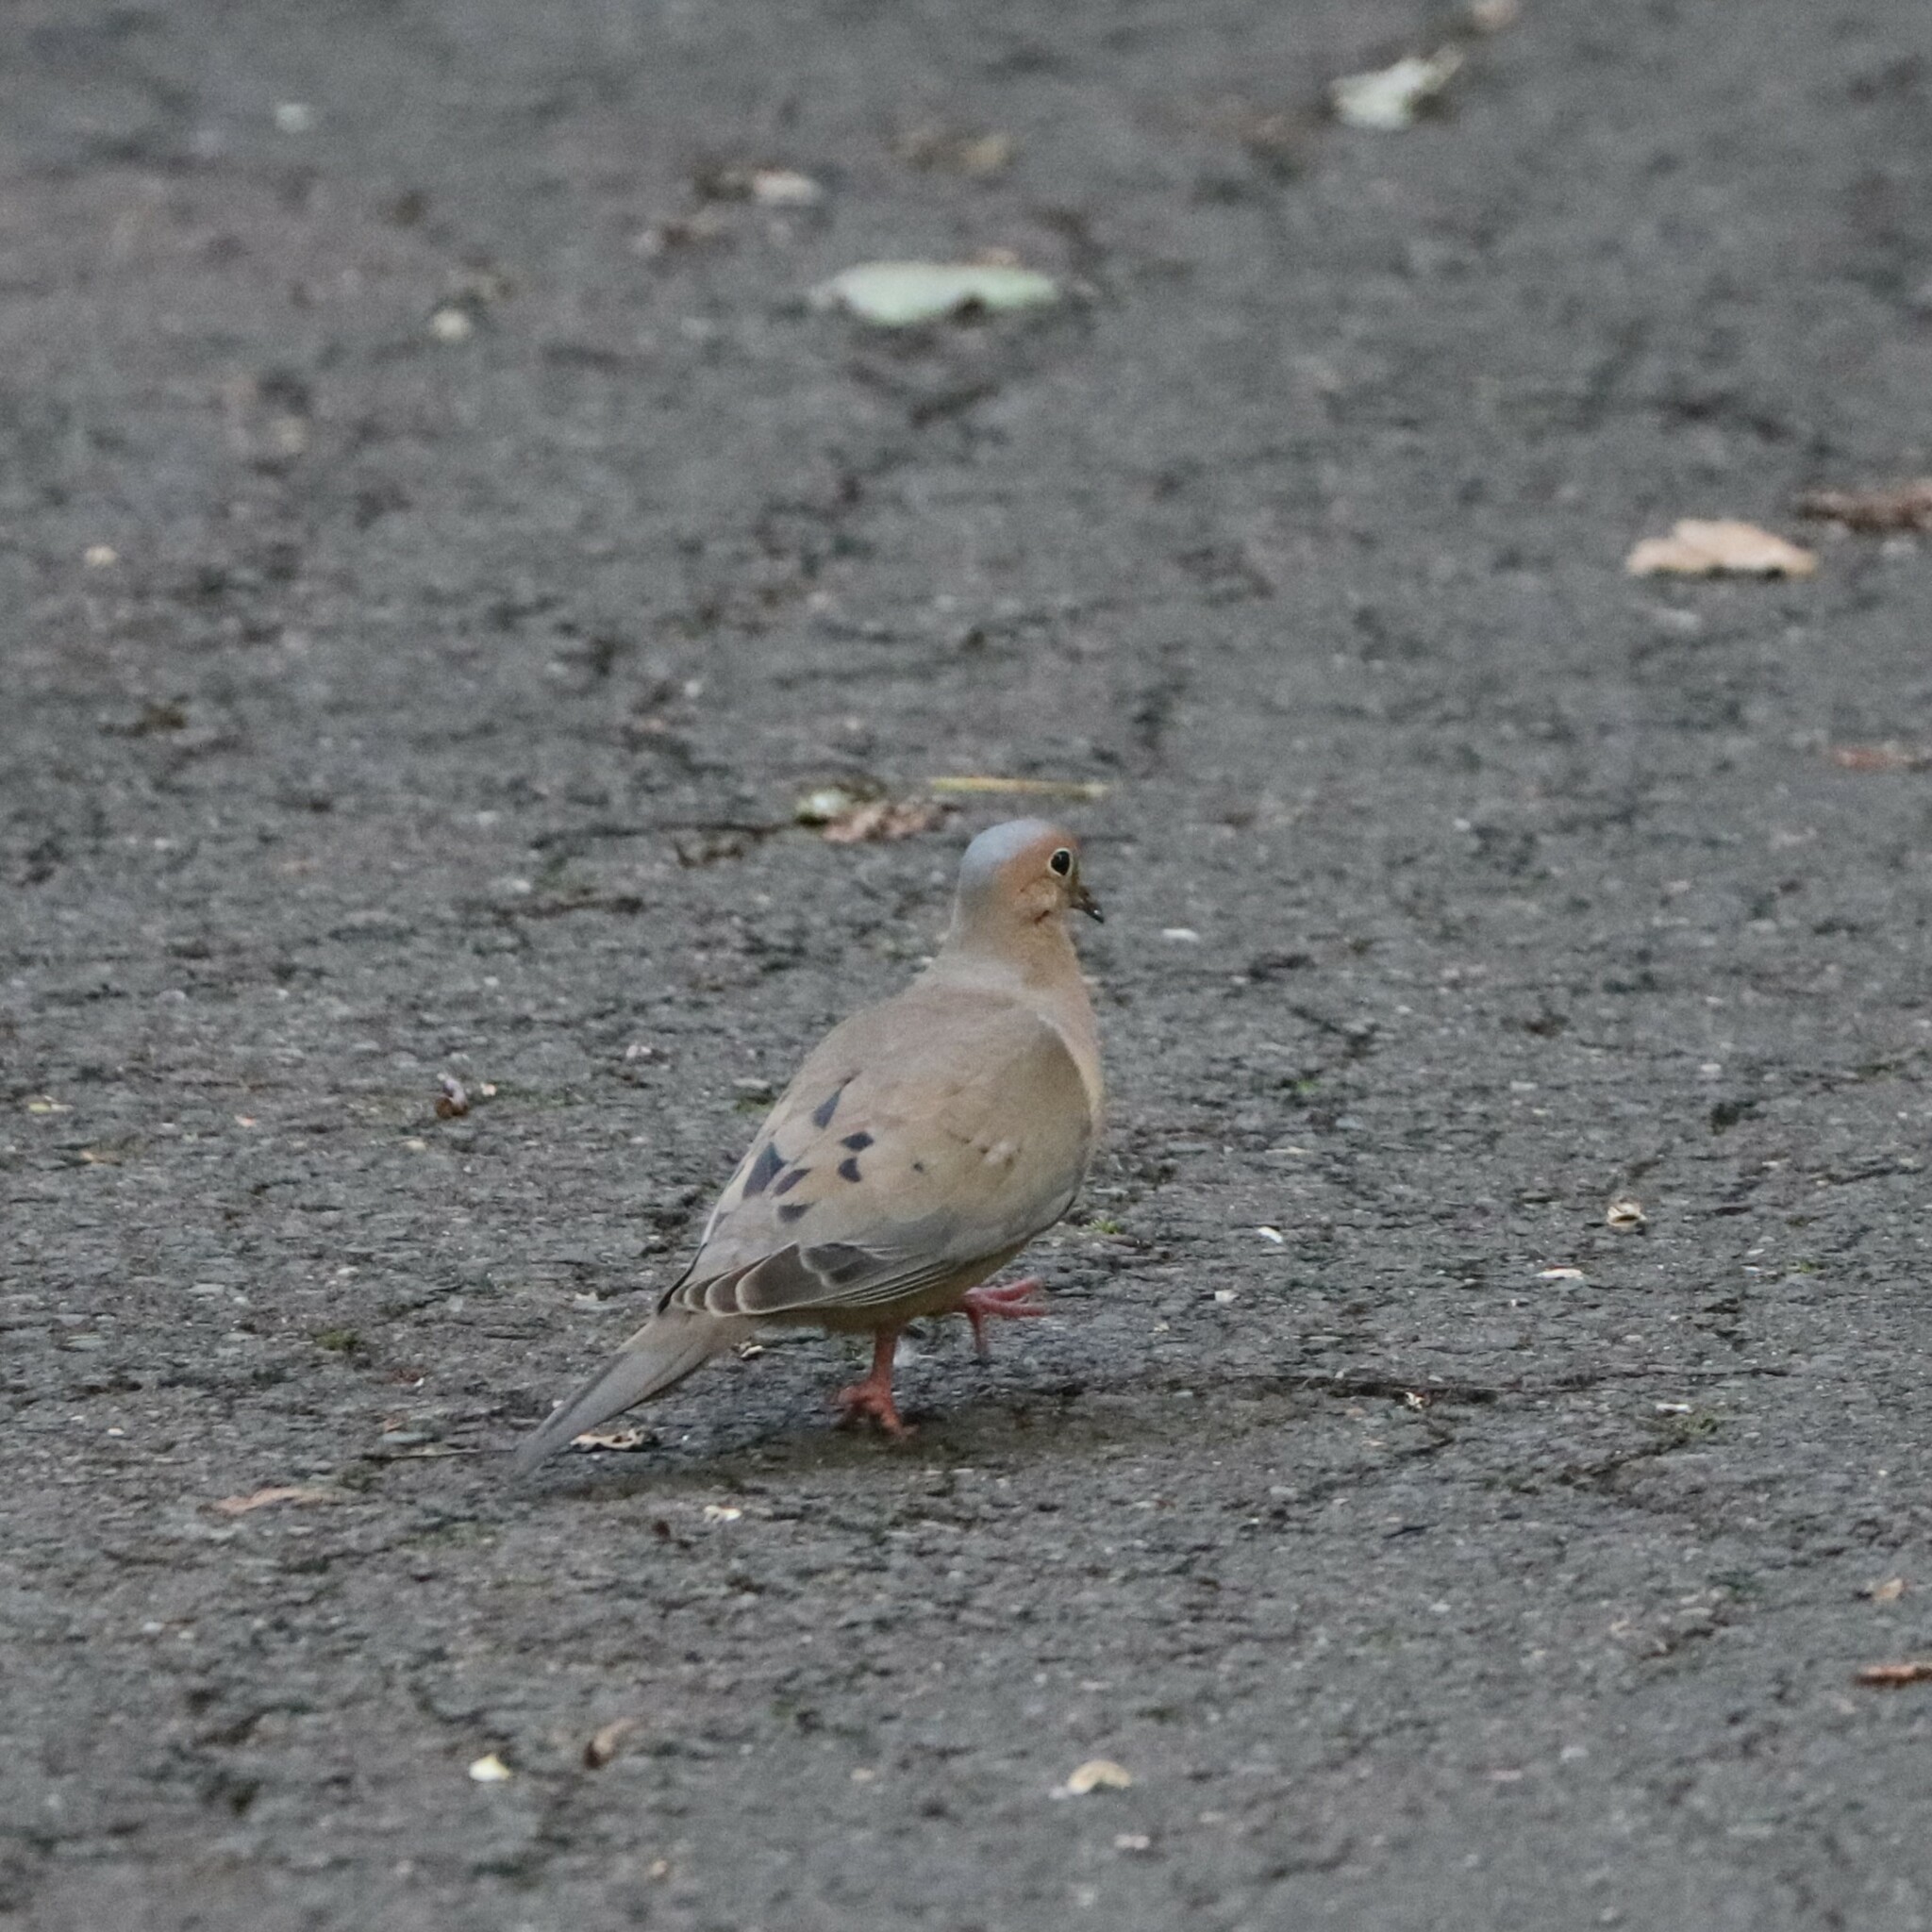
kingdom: Animalia
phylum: Chordata
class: Aves
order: Columbiformes
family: Columbidae
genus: Zenaida
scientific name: Zenaida macroura
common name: Mourning dove
